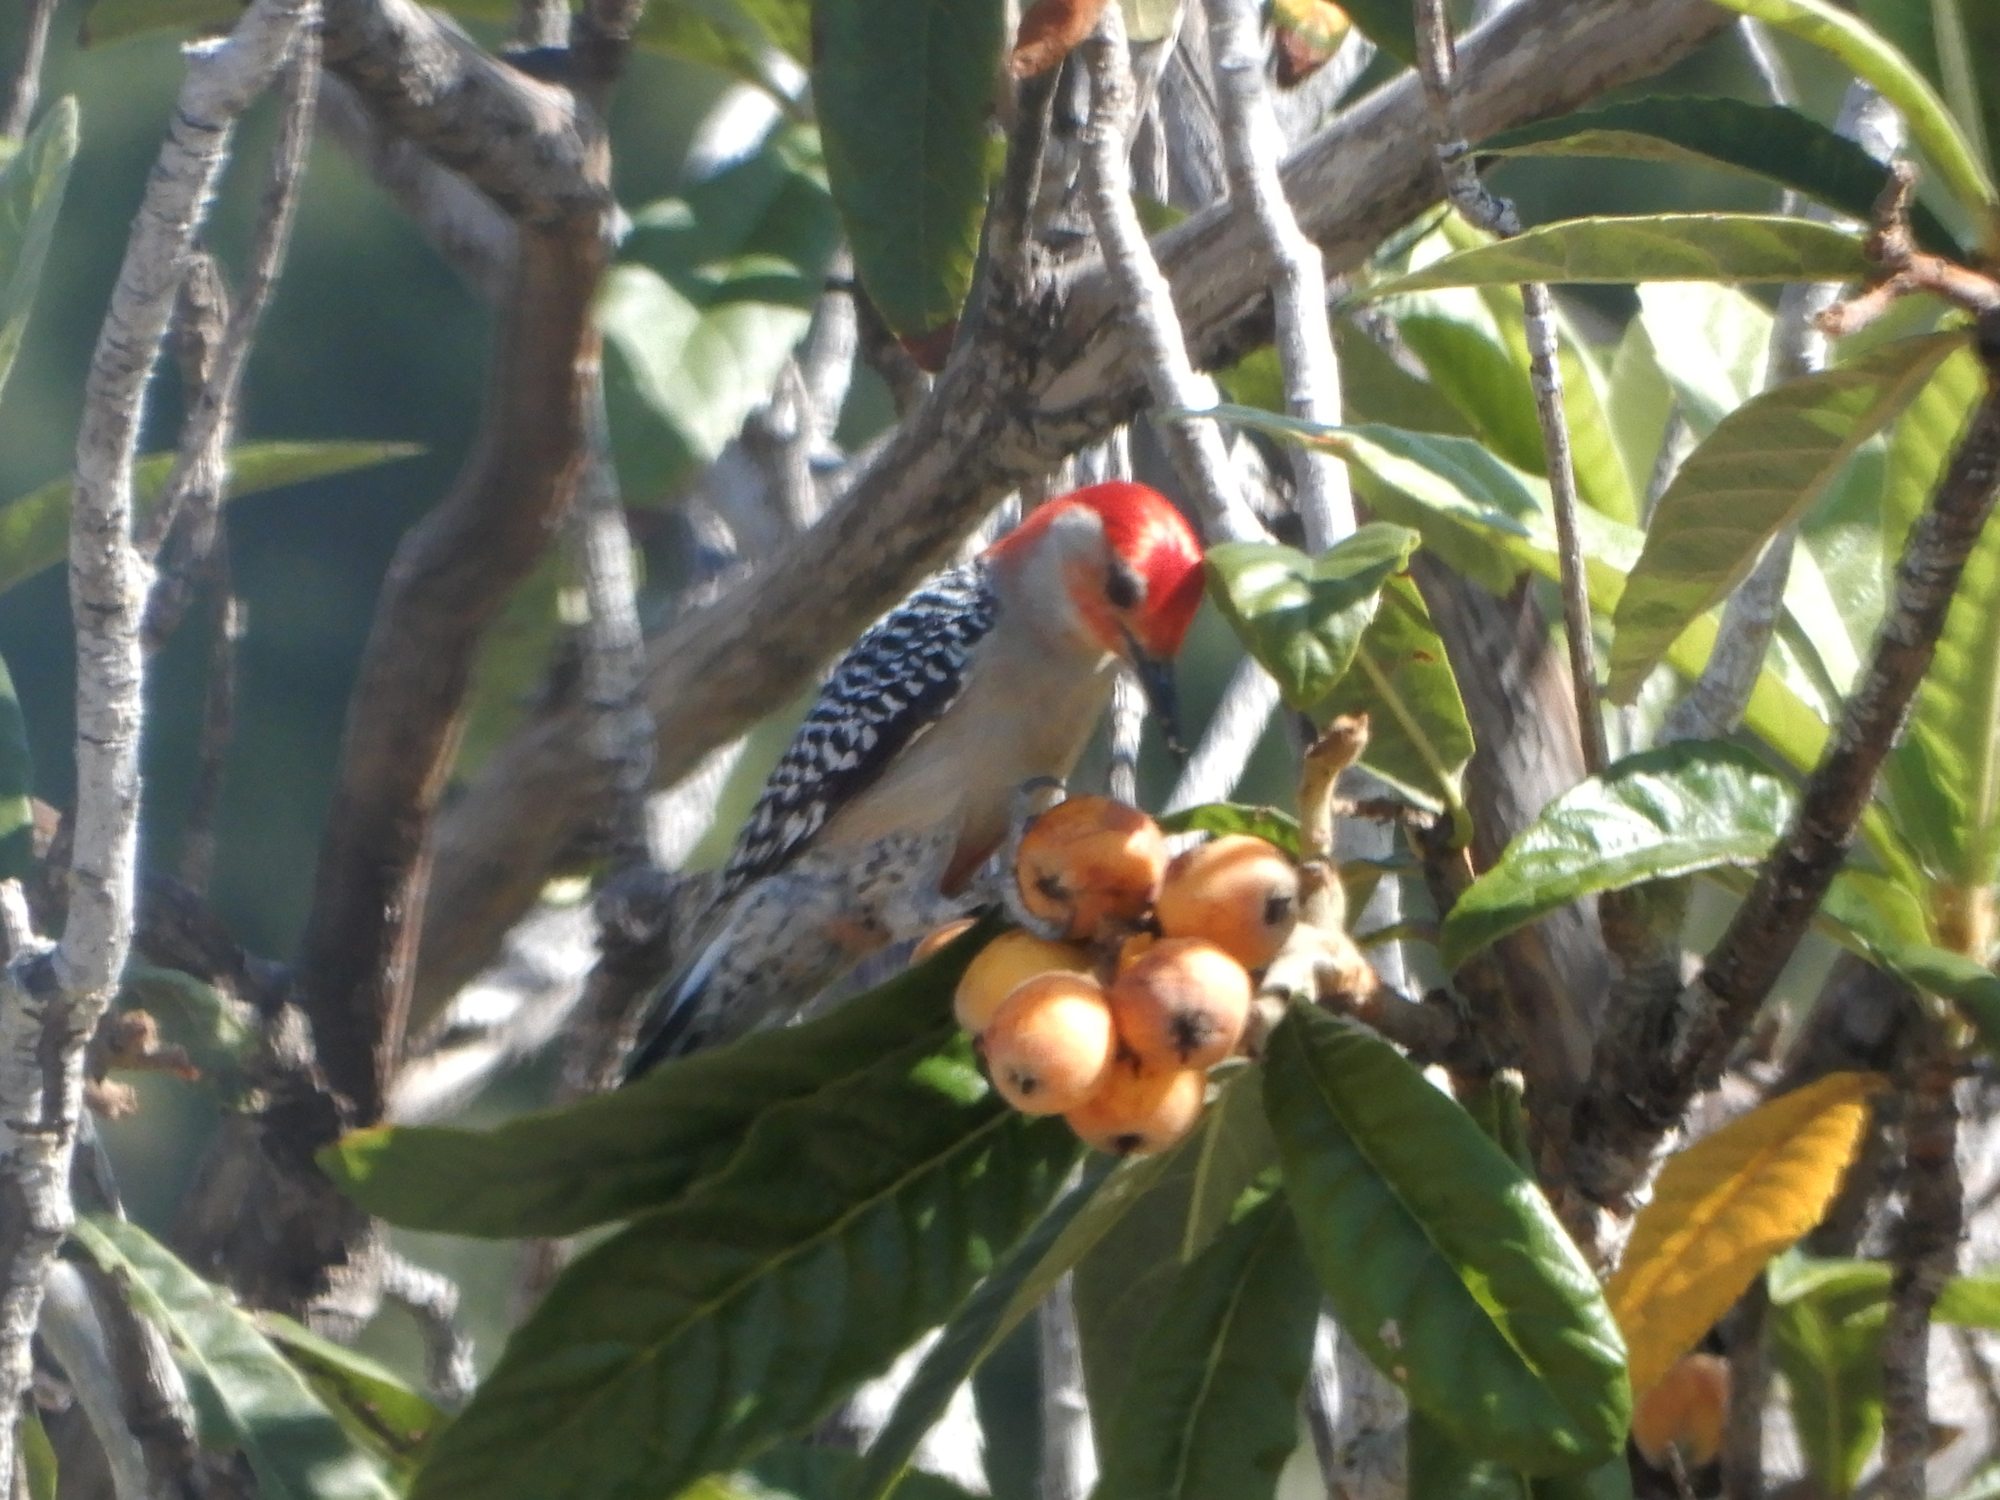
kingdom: Animalia
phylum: Chordata
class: Aves
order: Piciformes
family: Picidae
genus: Melanerpes
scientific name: Melanerpes carolinus
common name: Red-bellied woodpecker
